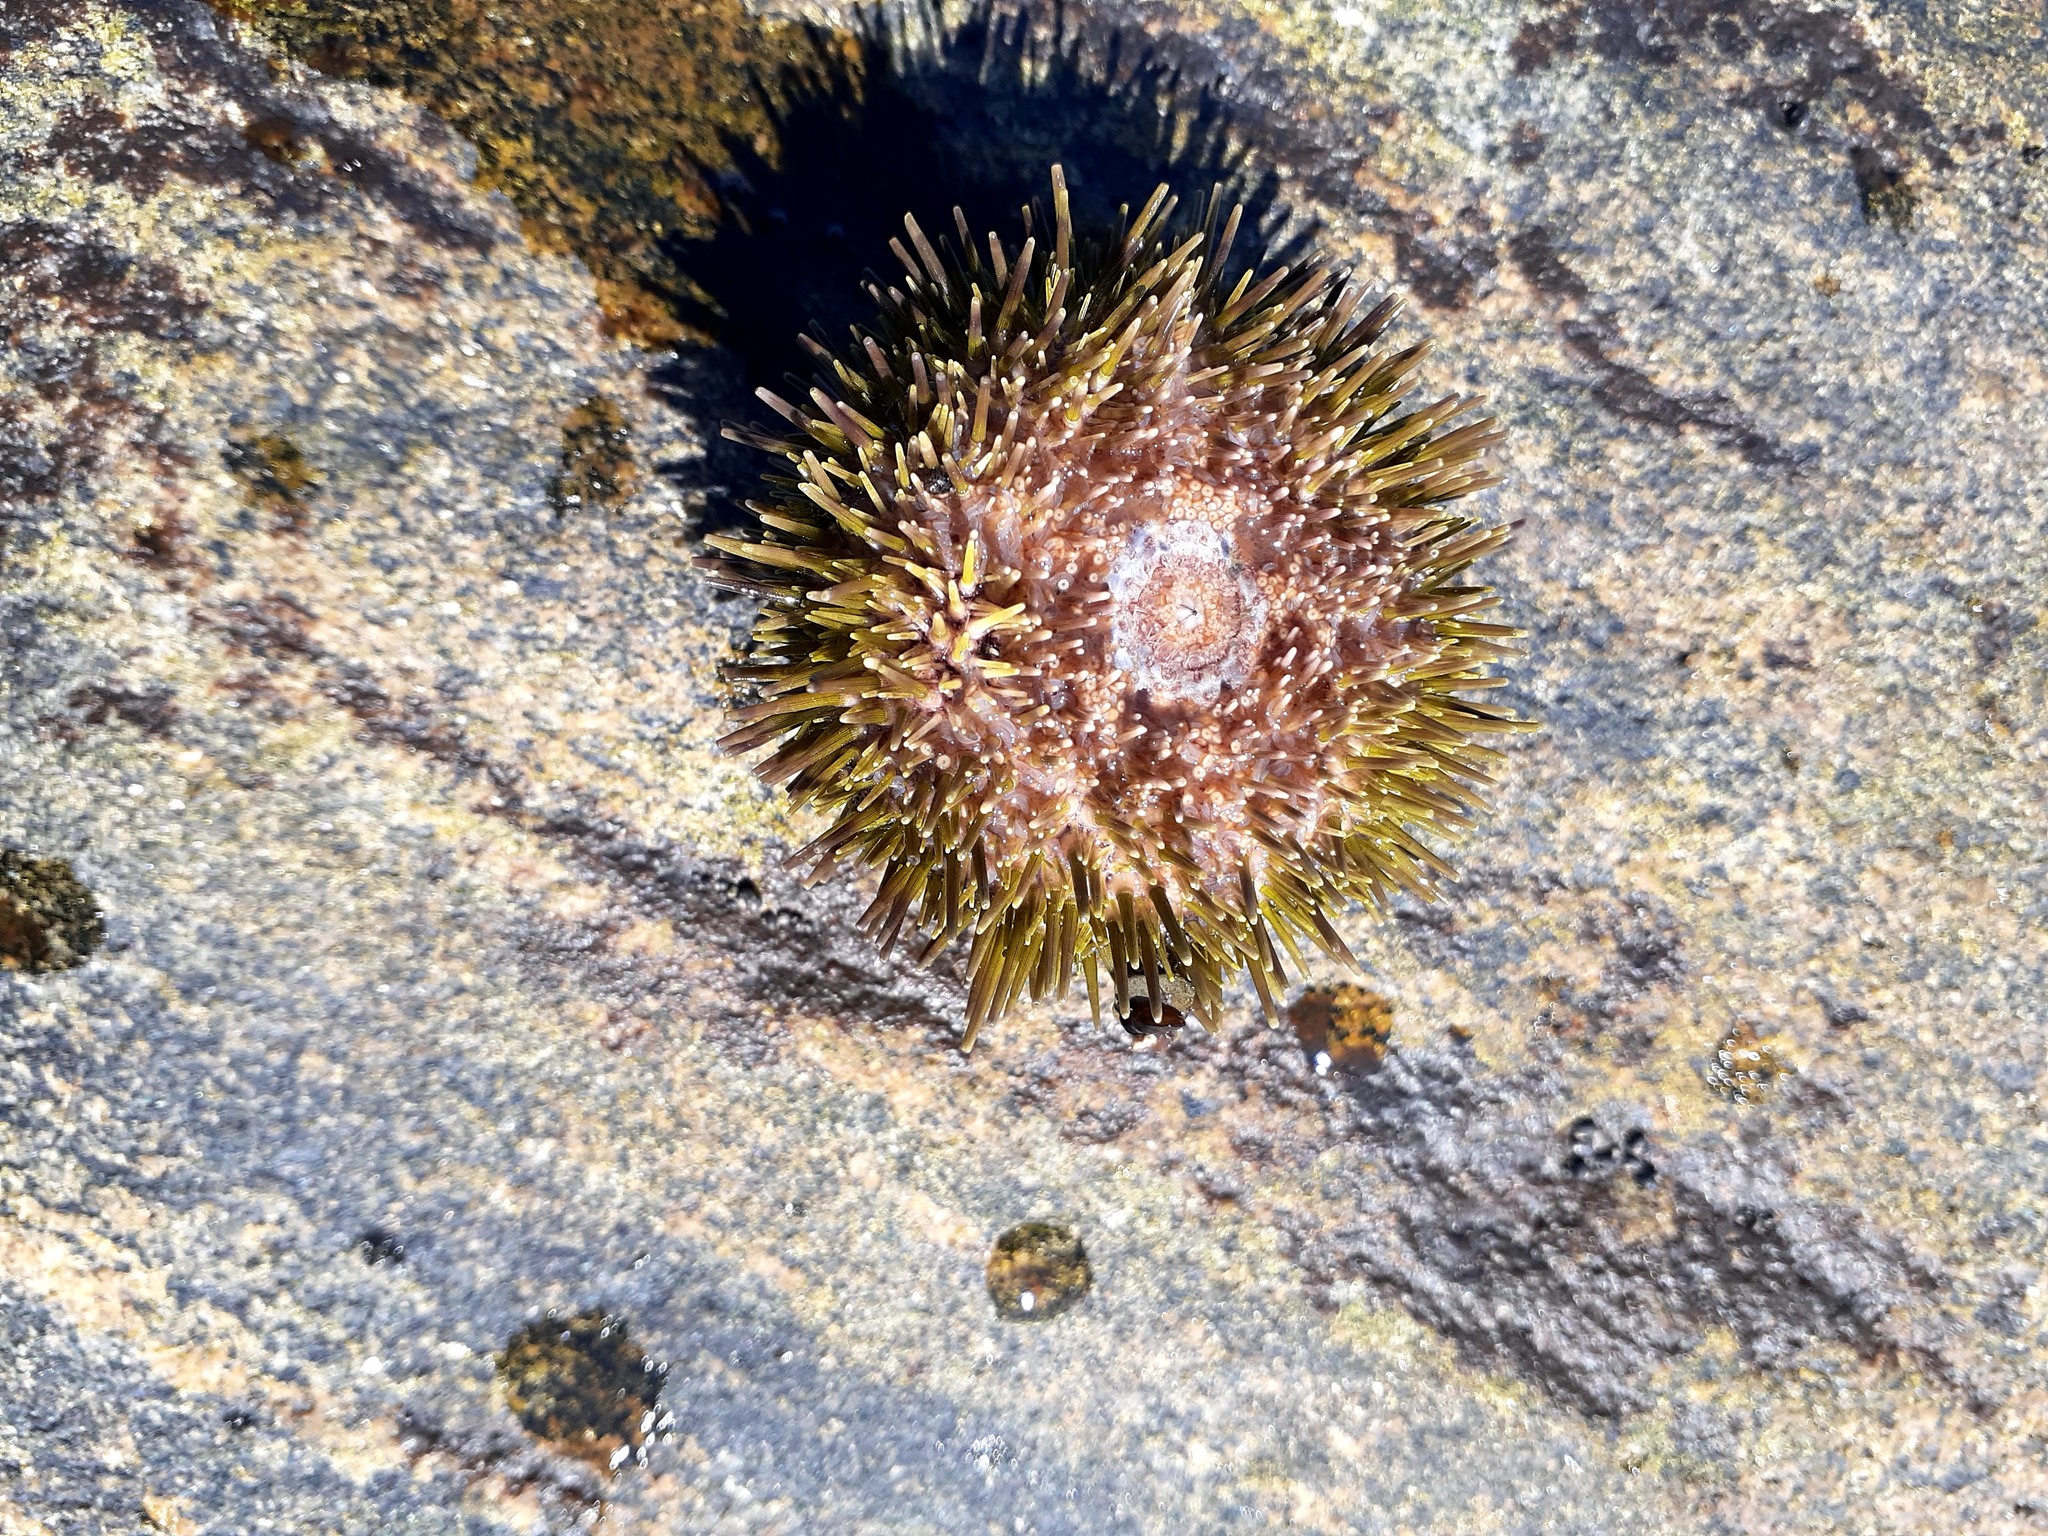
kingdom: Animalia
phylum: Echinodermata
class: Echinoidea
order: Camarodonta
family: Strongylocentrotidae
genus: Strongylocentrotus
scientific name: Strongylocentrotus droebachiensis
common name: Northern sea urchin
